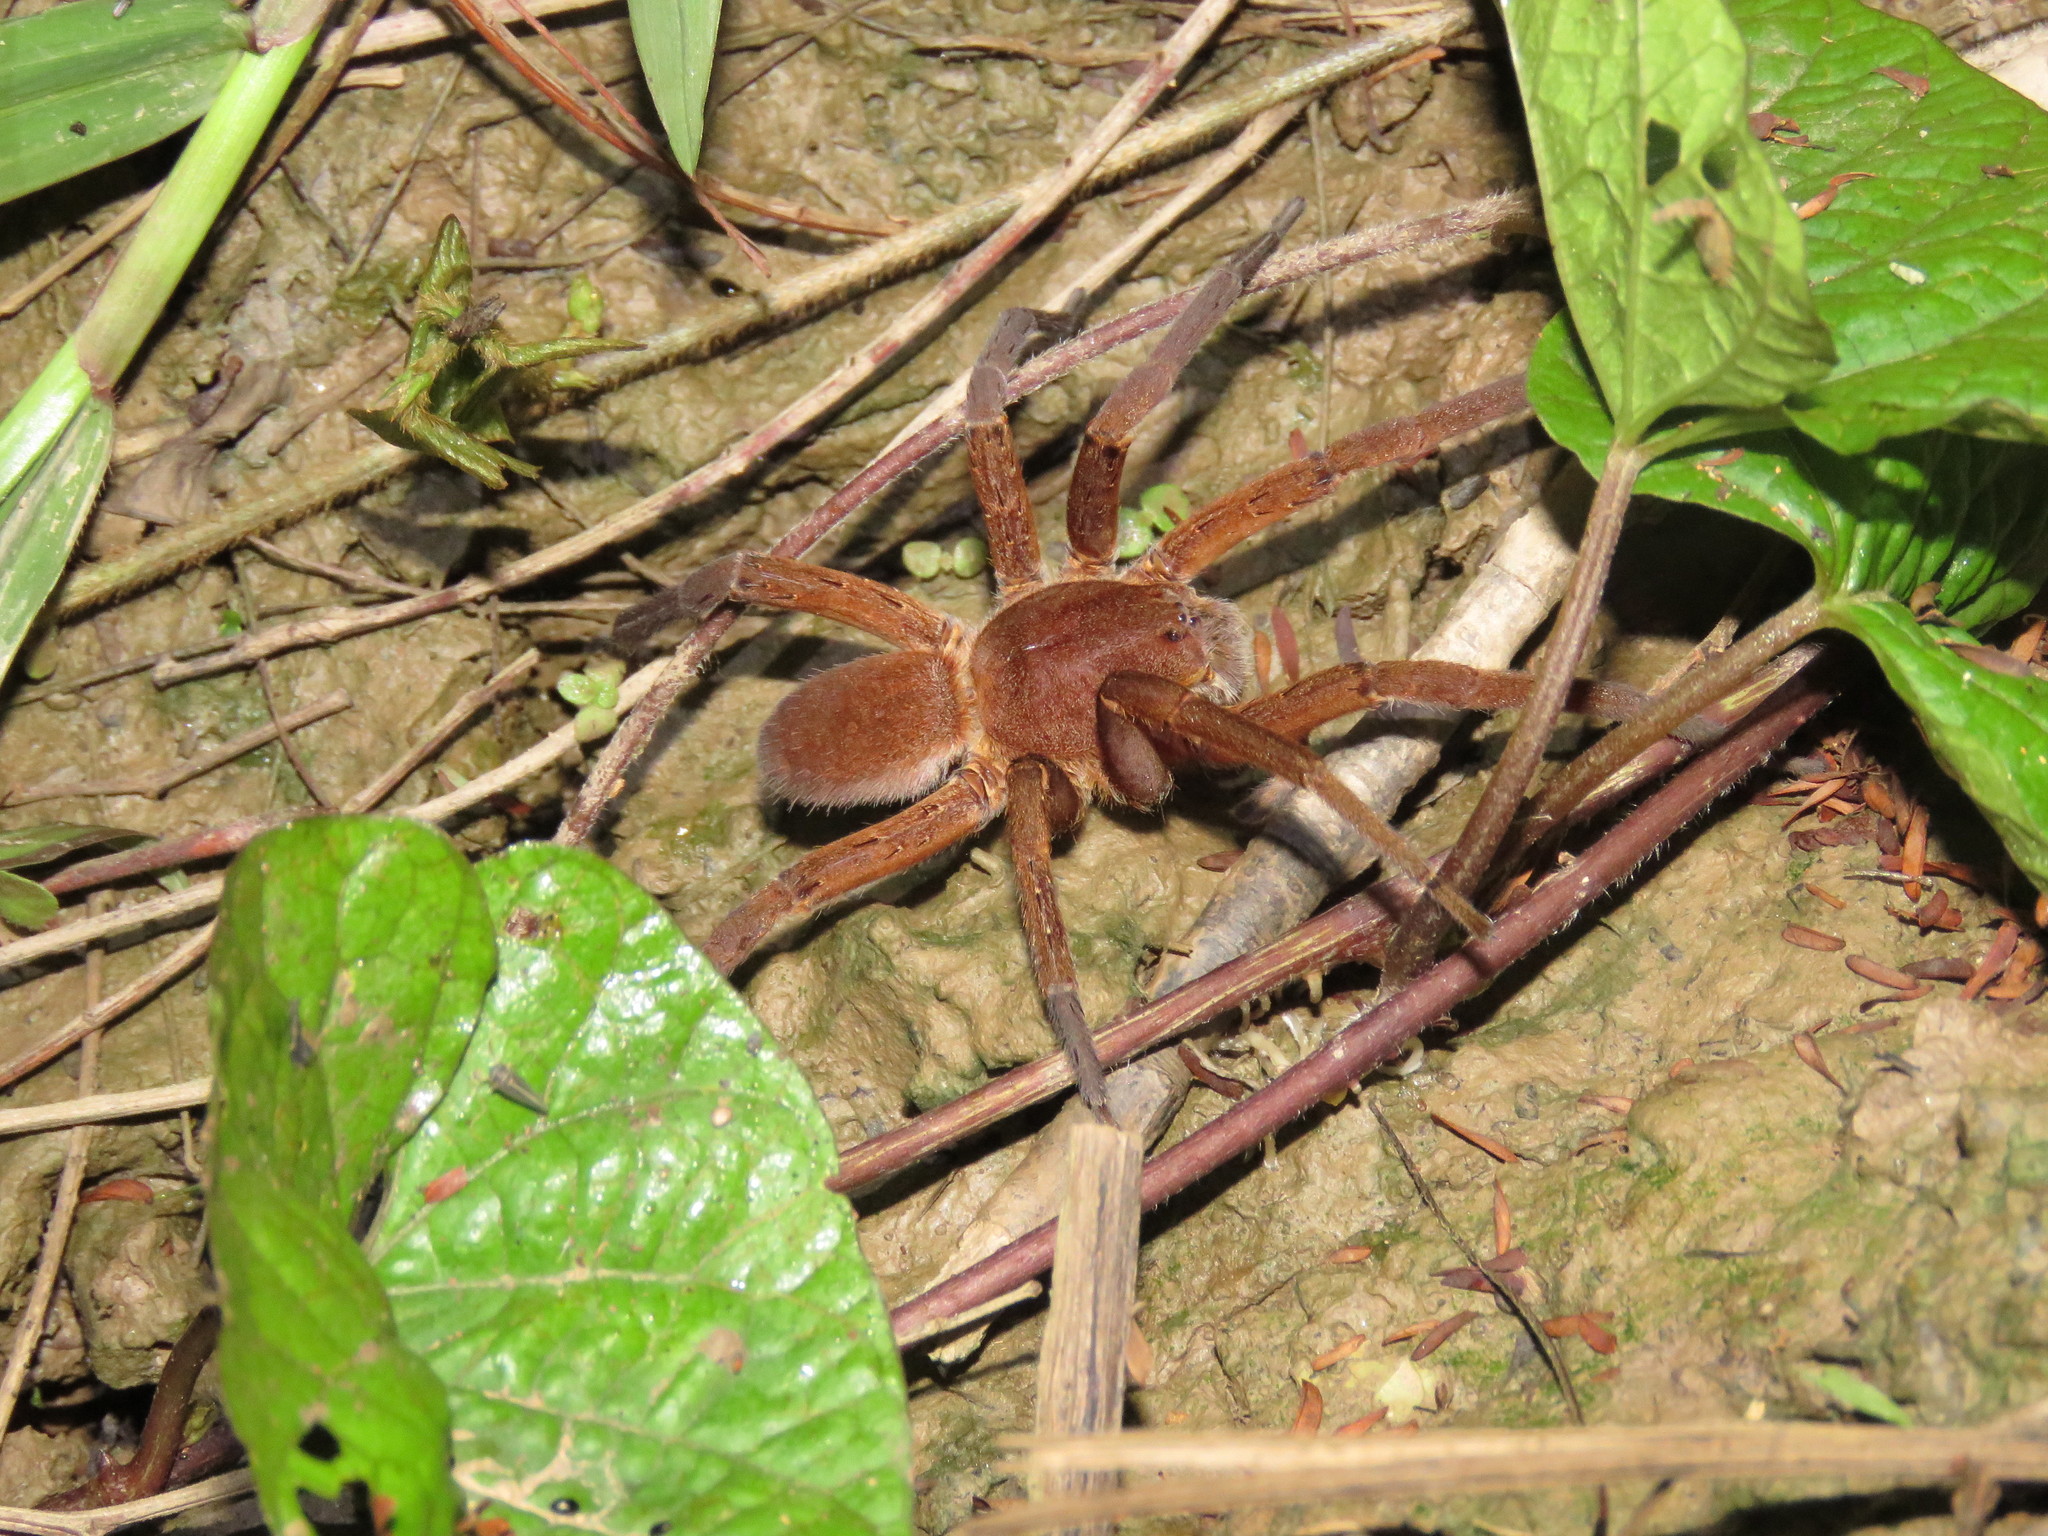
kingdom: Animalia
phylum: Arthropoda
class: Arachnida
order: Araneae
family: Ctenidae
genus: Ancylometes
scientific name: Ancylometes rufus
